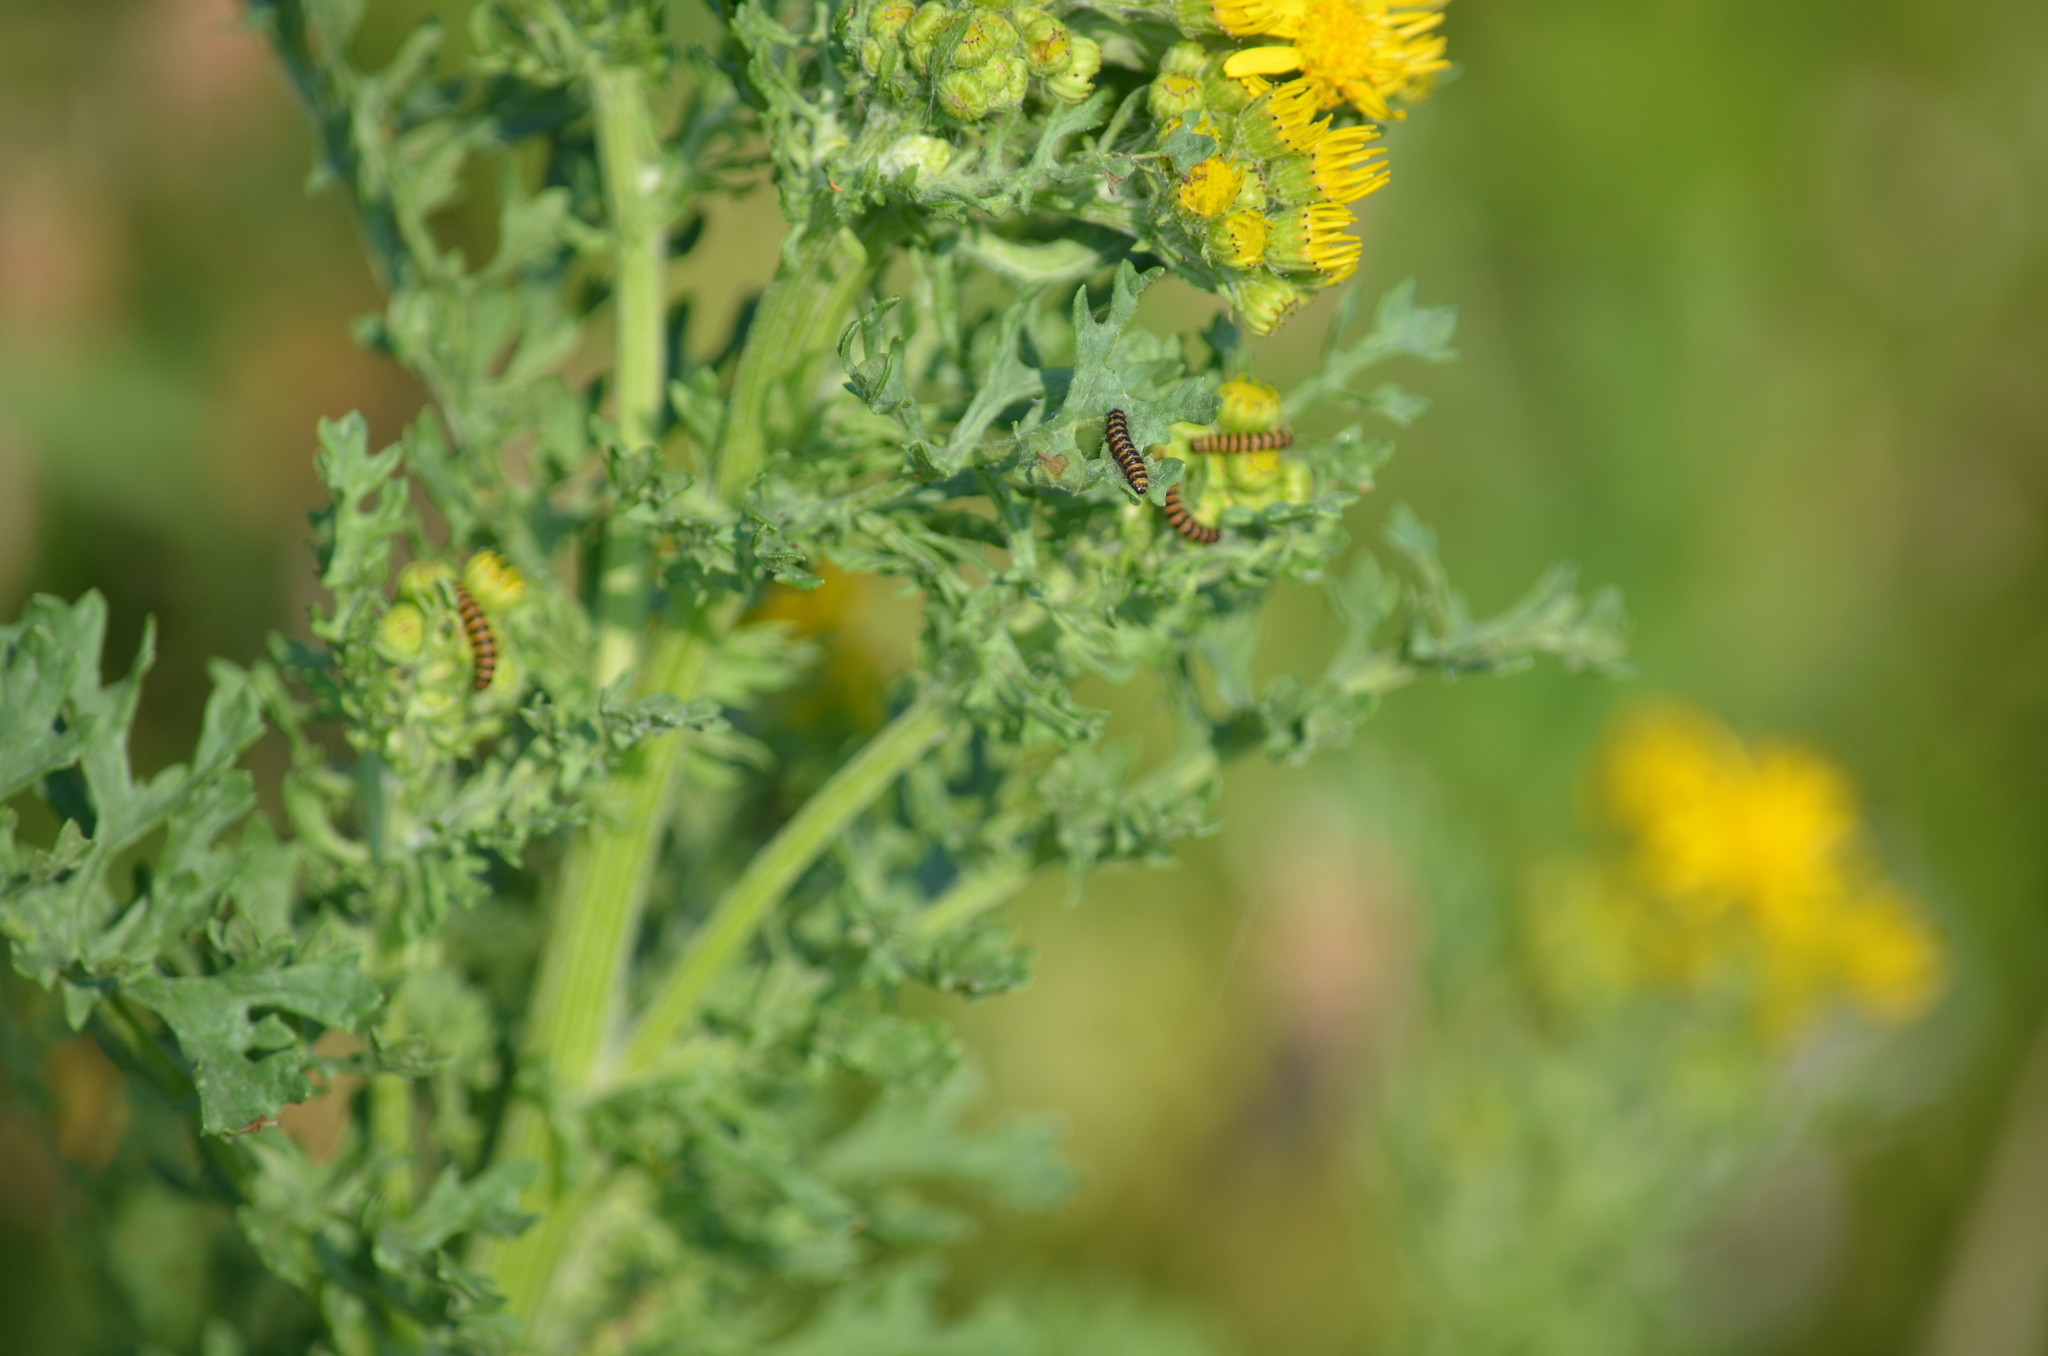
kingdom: Animalia
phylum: Arthropoda
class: Insecta
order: Lepidoptera
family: Erebidae
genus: Tyria
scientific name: Tyria jacobaeae
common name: Cinnabar
